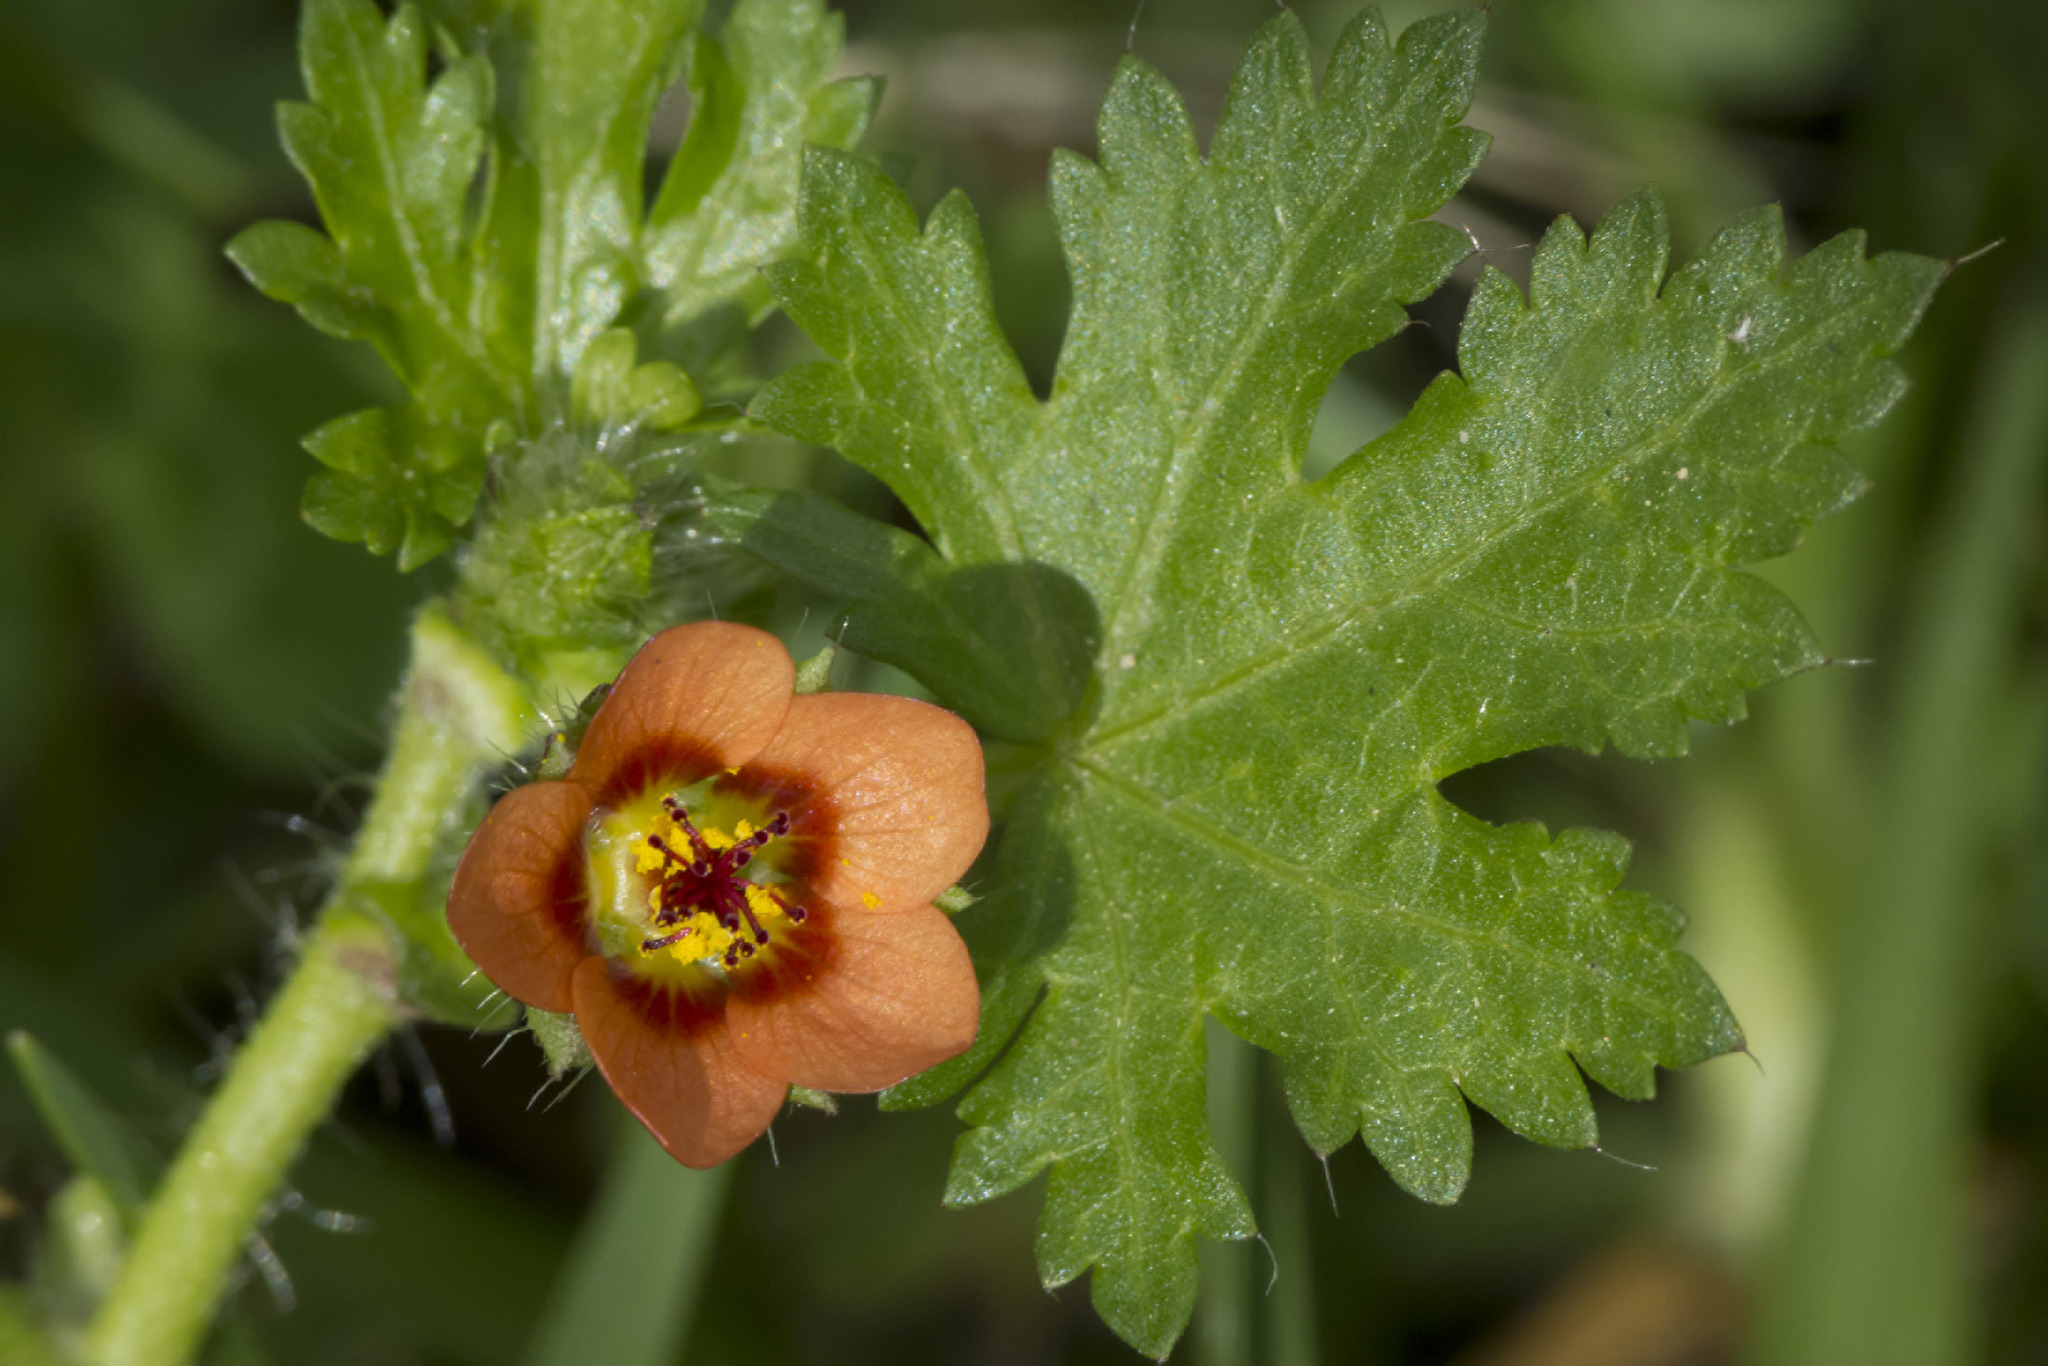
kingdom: Plantae
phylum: Tracheophyta
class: Magnoliopsida
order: Malvales
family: Malvaceae
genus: Modiola
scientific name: Modiola caroliniana
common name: Carolina bristlemallow
